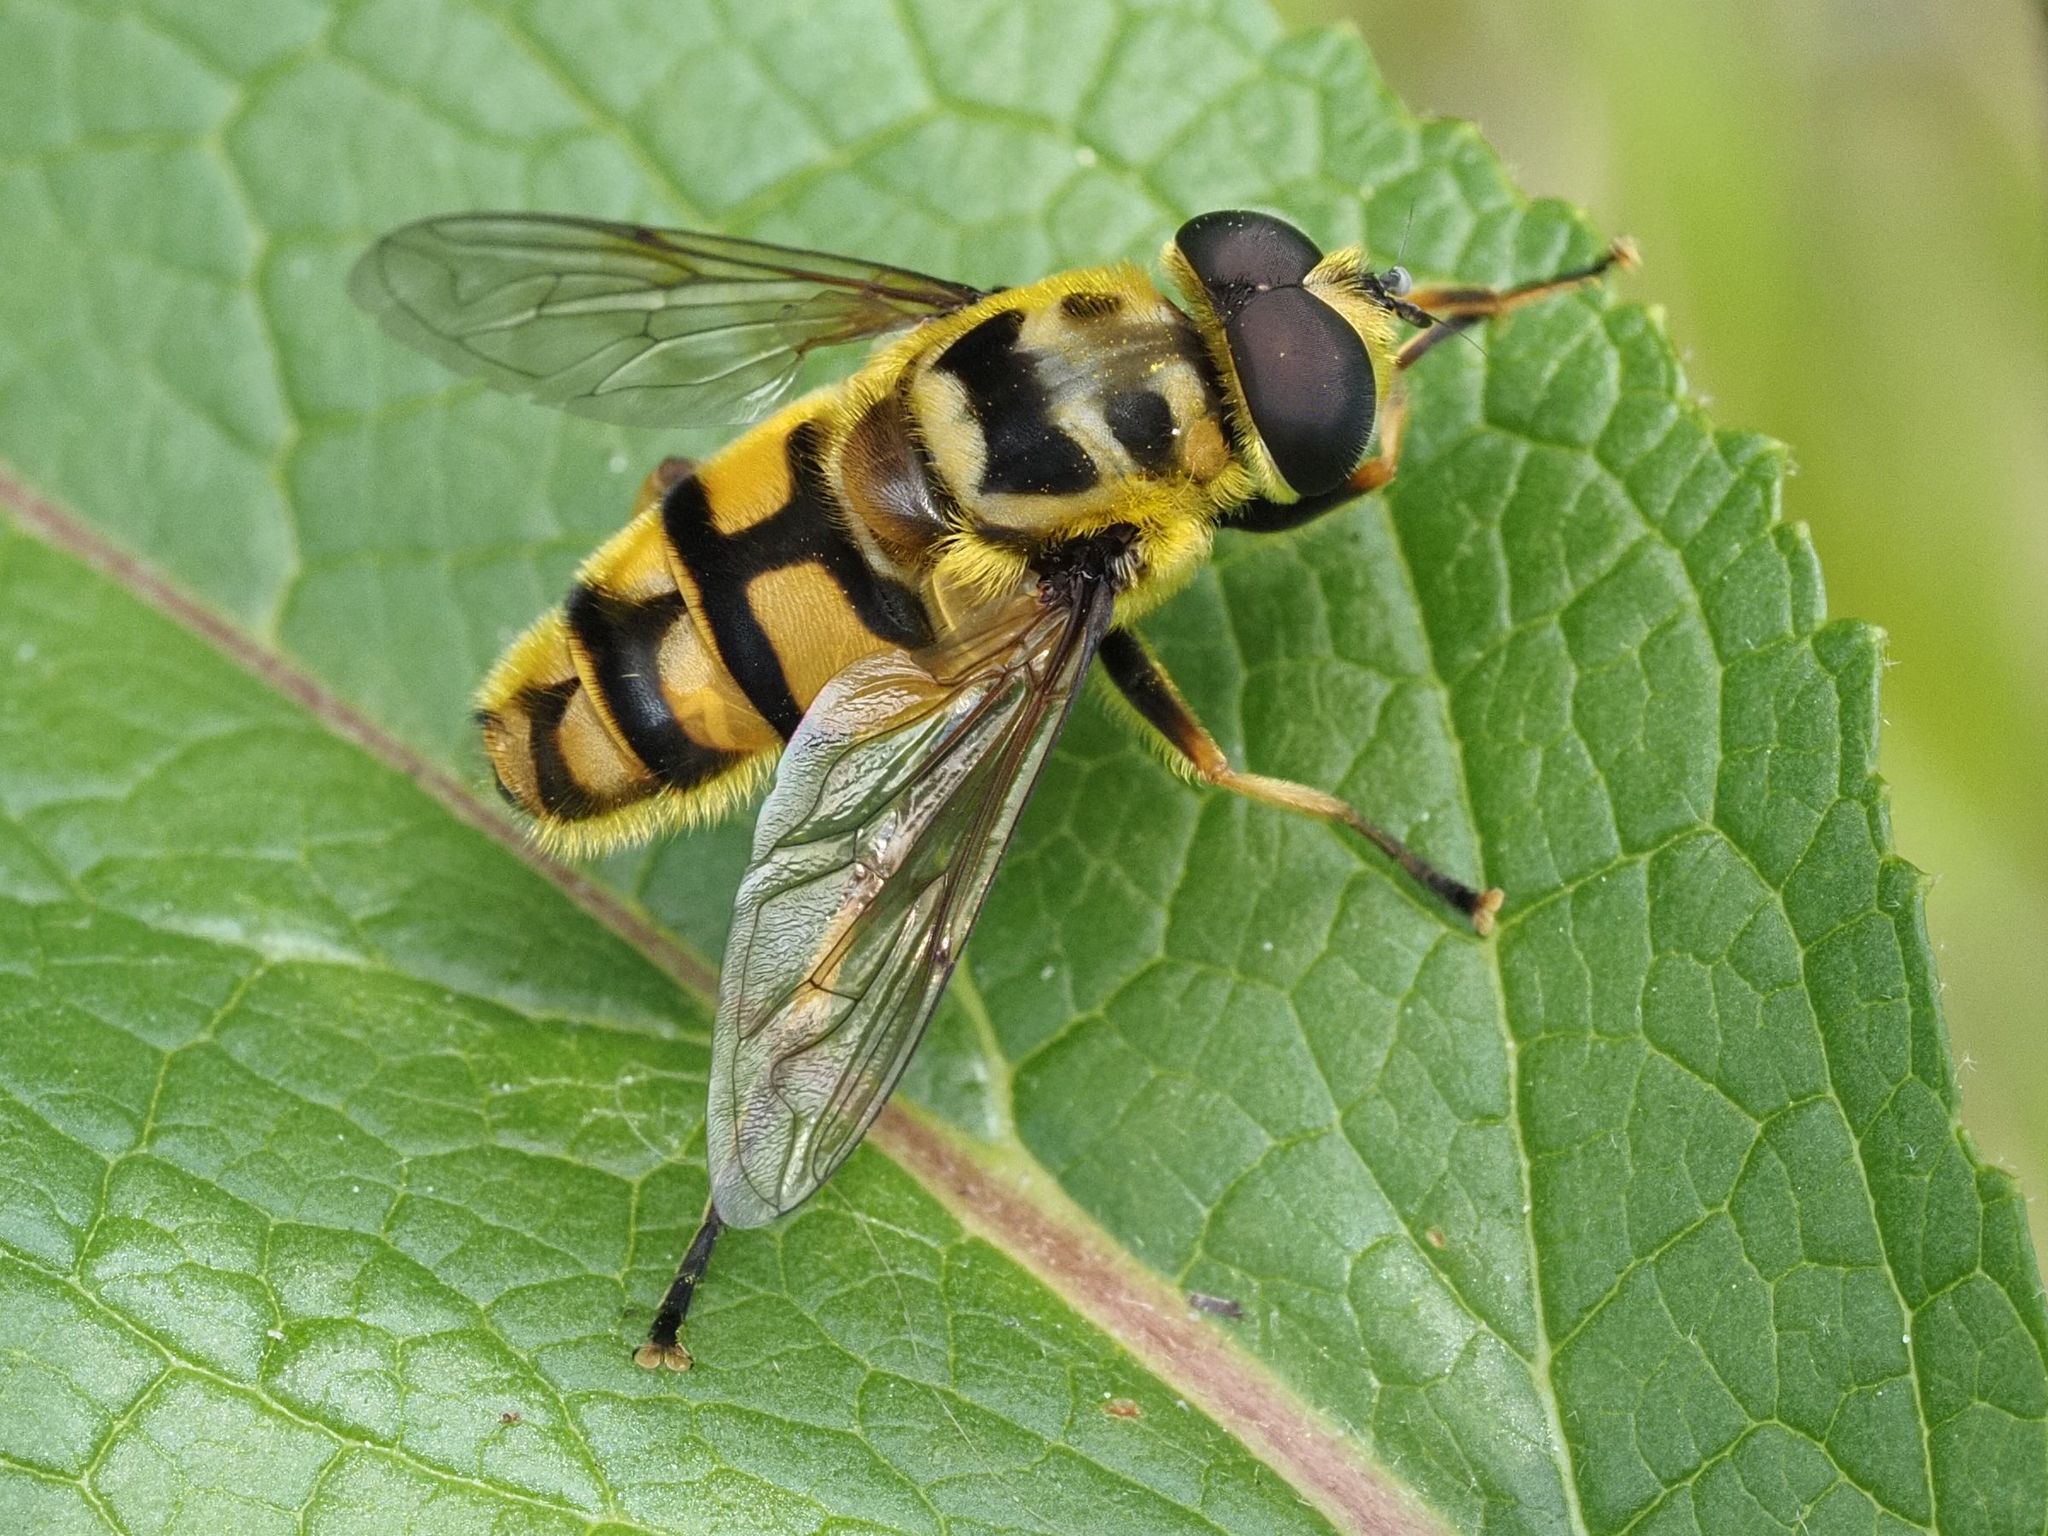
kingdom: Animalia
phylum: Arthropoda
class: Insecta
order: Diptera
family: Syrphidae
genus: Myathropa
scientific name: Myathropa florea
